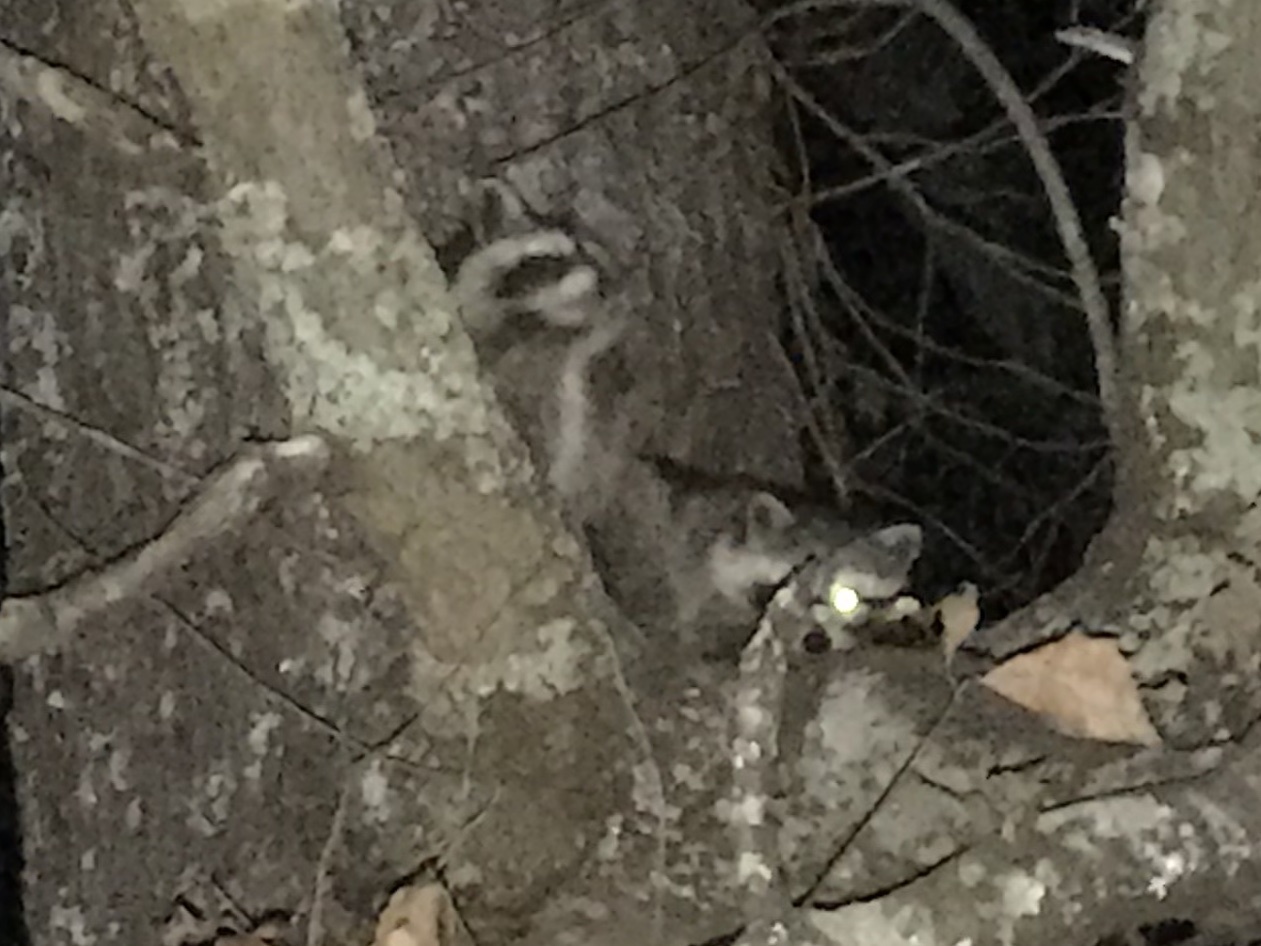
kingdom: Animalia
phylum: Chordata
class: Mammalia
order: Carnivora
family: Procyonidae
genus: Procyon
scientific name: Procyon lotor
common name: Raccoon
